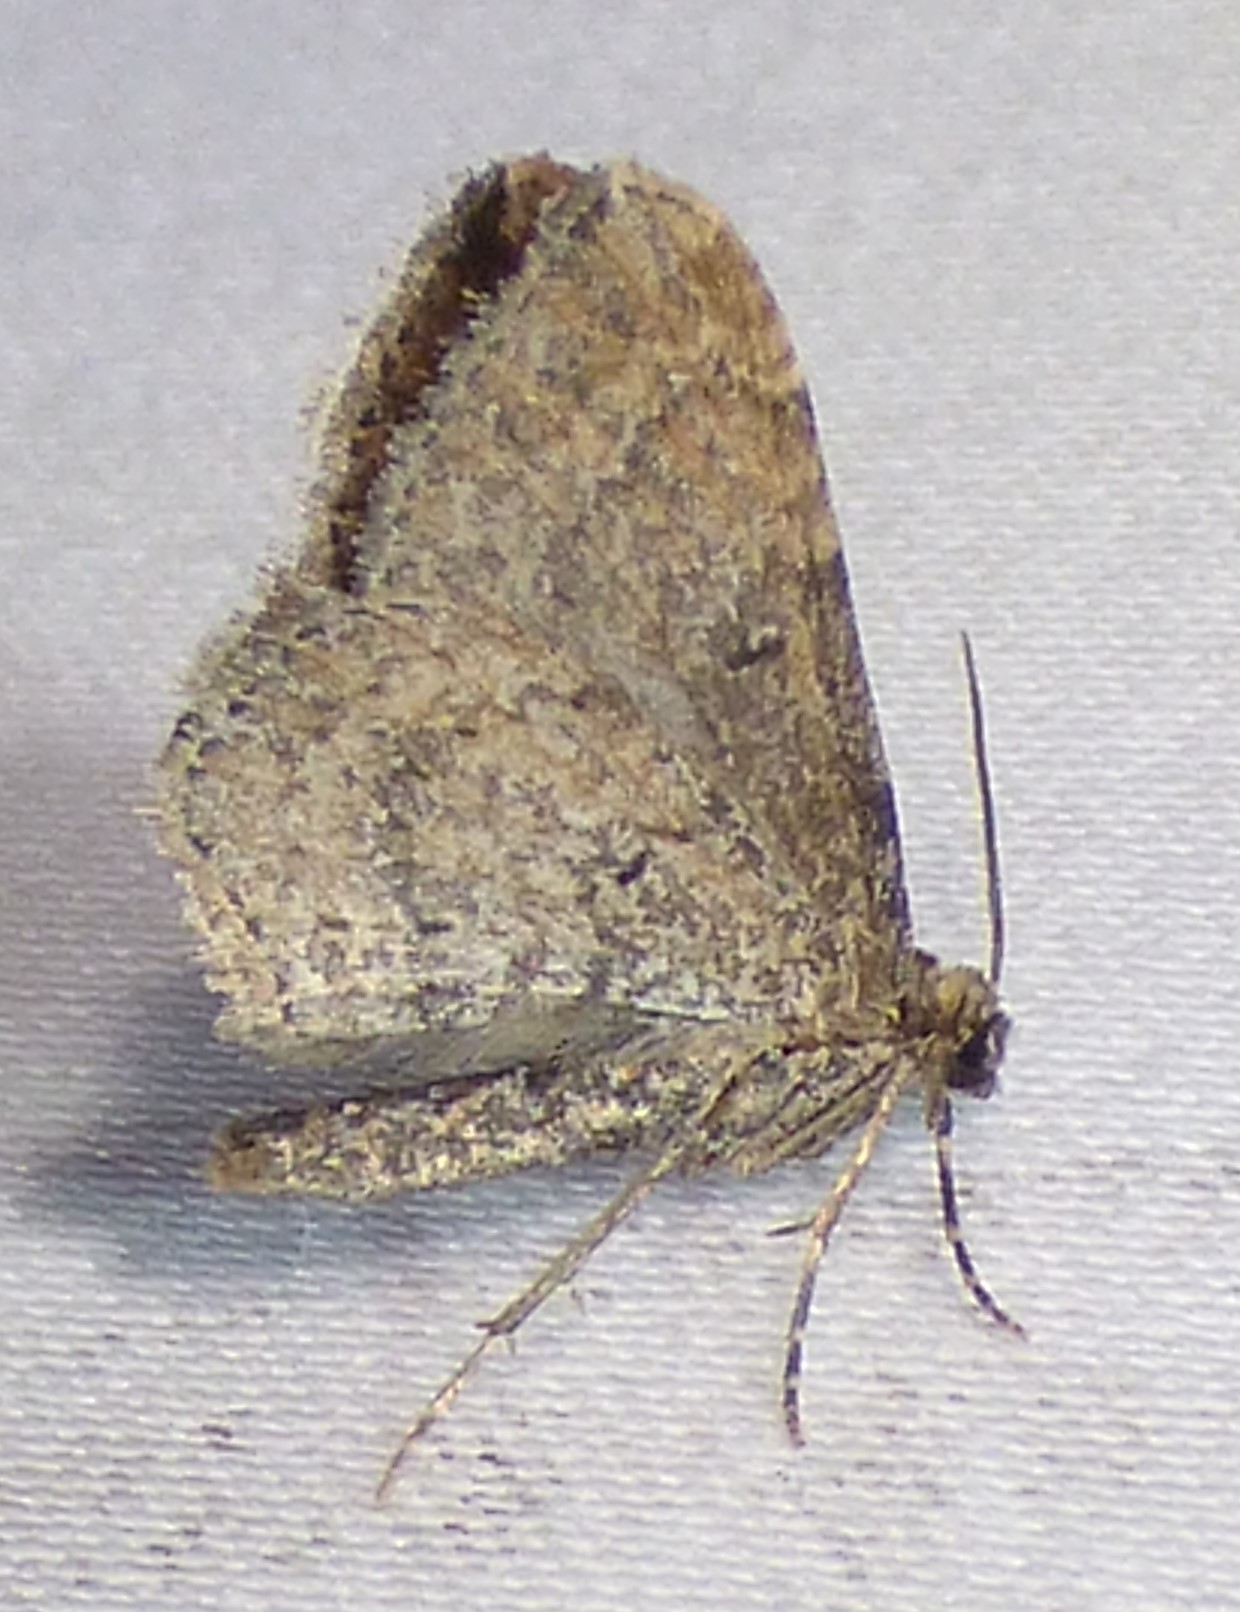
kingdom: Animalia
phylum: Arthropoda
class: Insecta
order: Lepidoptera
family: Geometridae
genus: Orthonama
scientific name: Orthonama obstipata
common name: The gem
